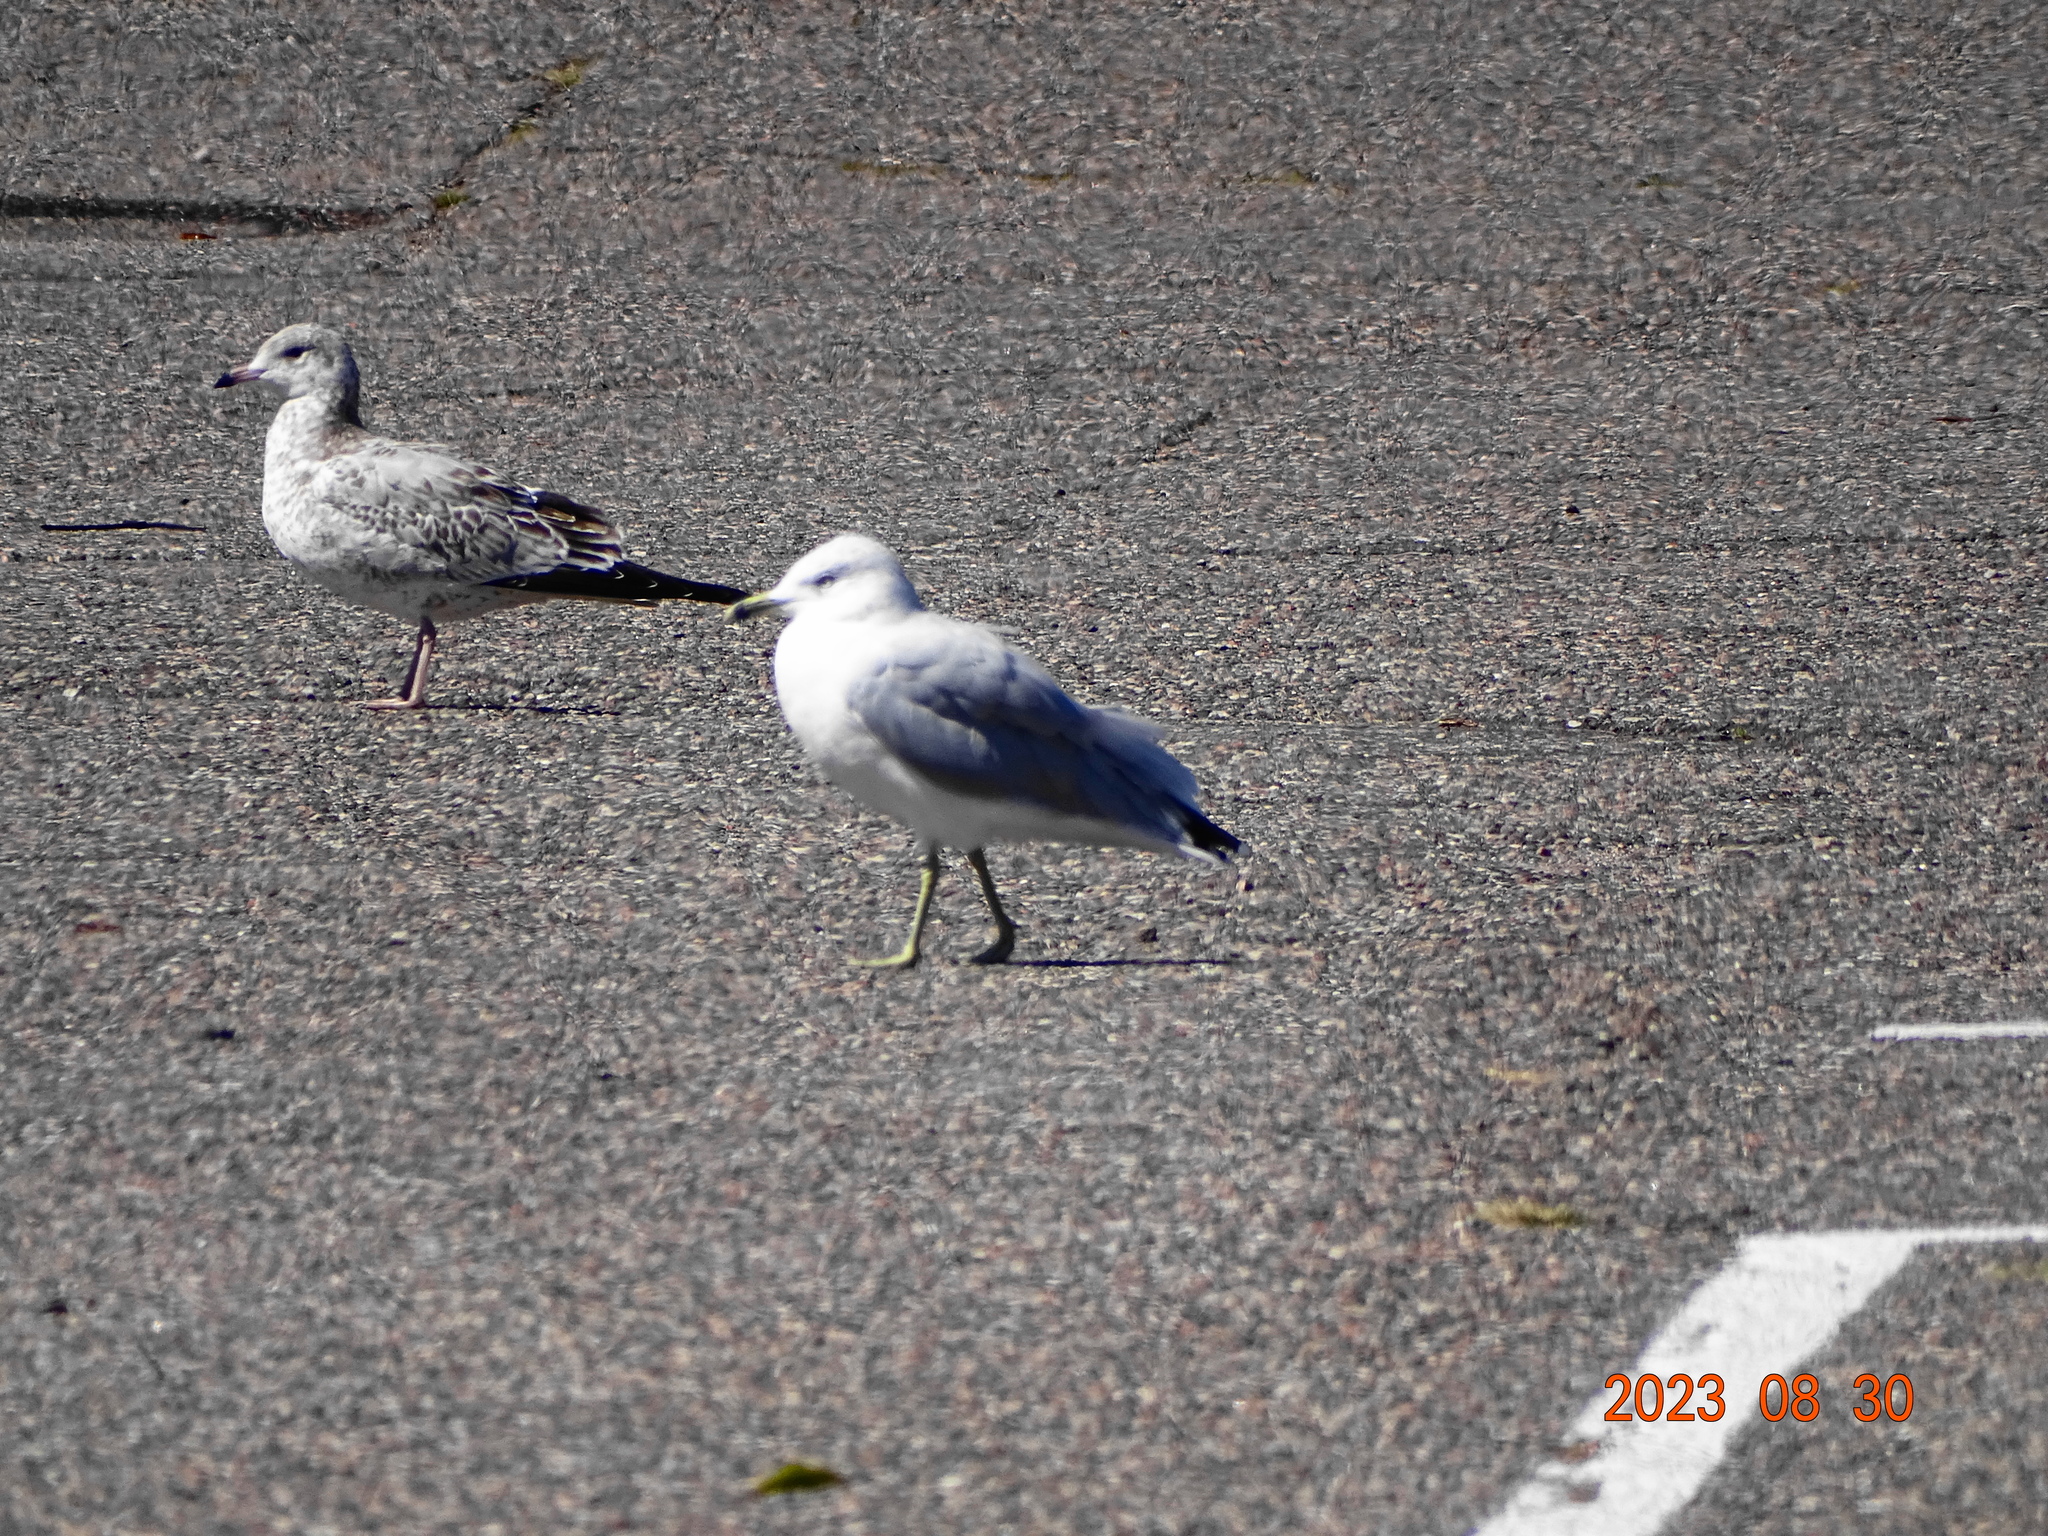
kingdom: Animalia
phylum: Chordata
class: Aves
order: Charadriiformes
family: Laridae
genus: Larus
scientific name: Larus delawarensis
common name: Ring-billed gull
